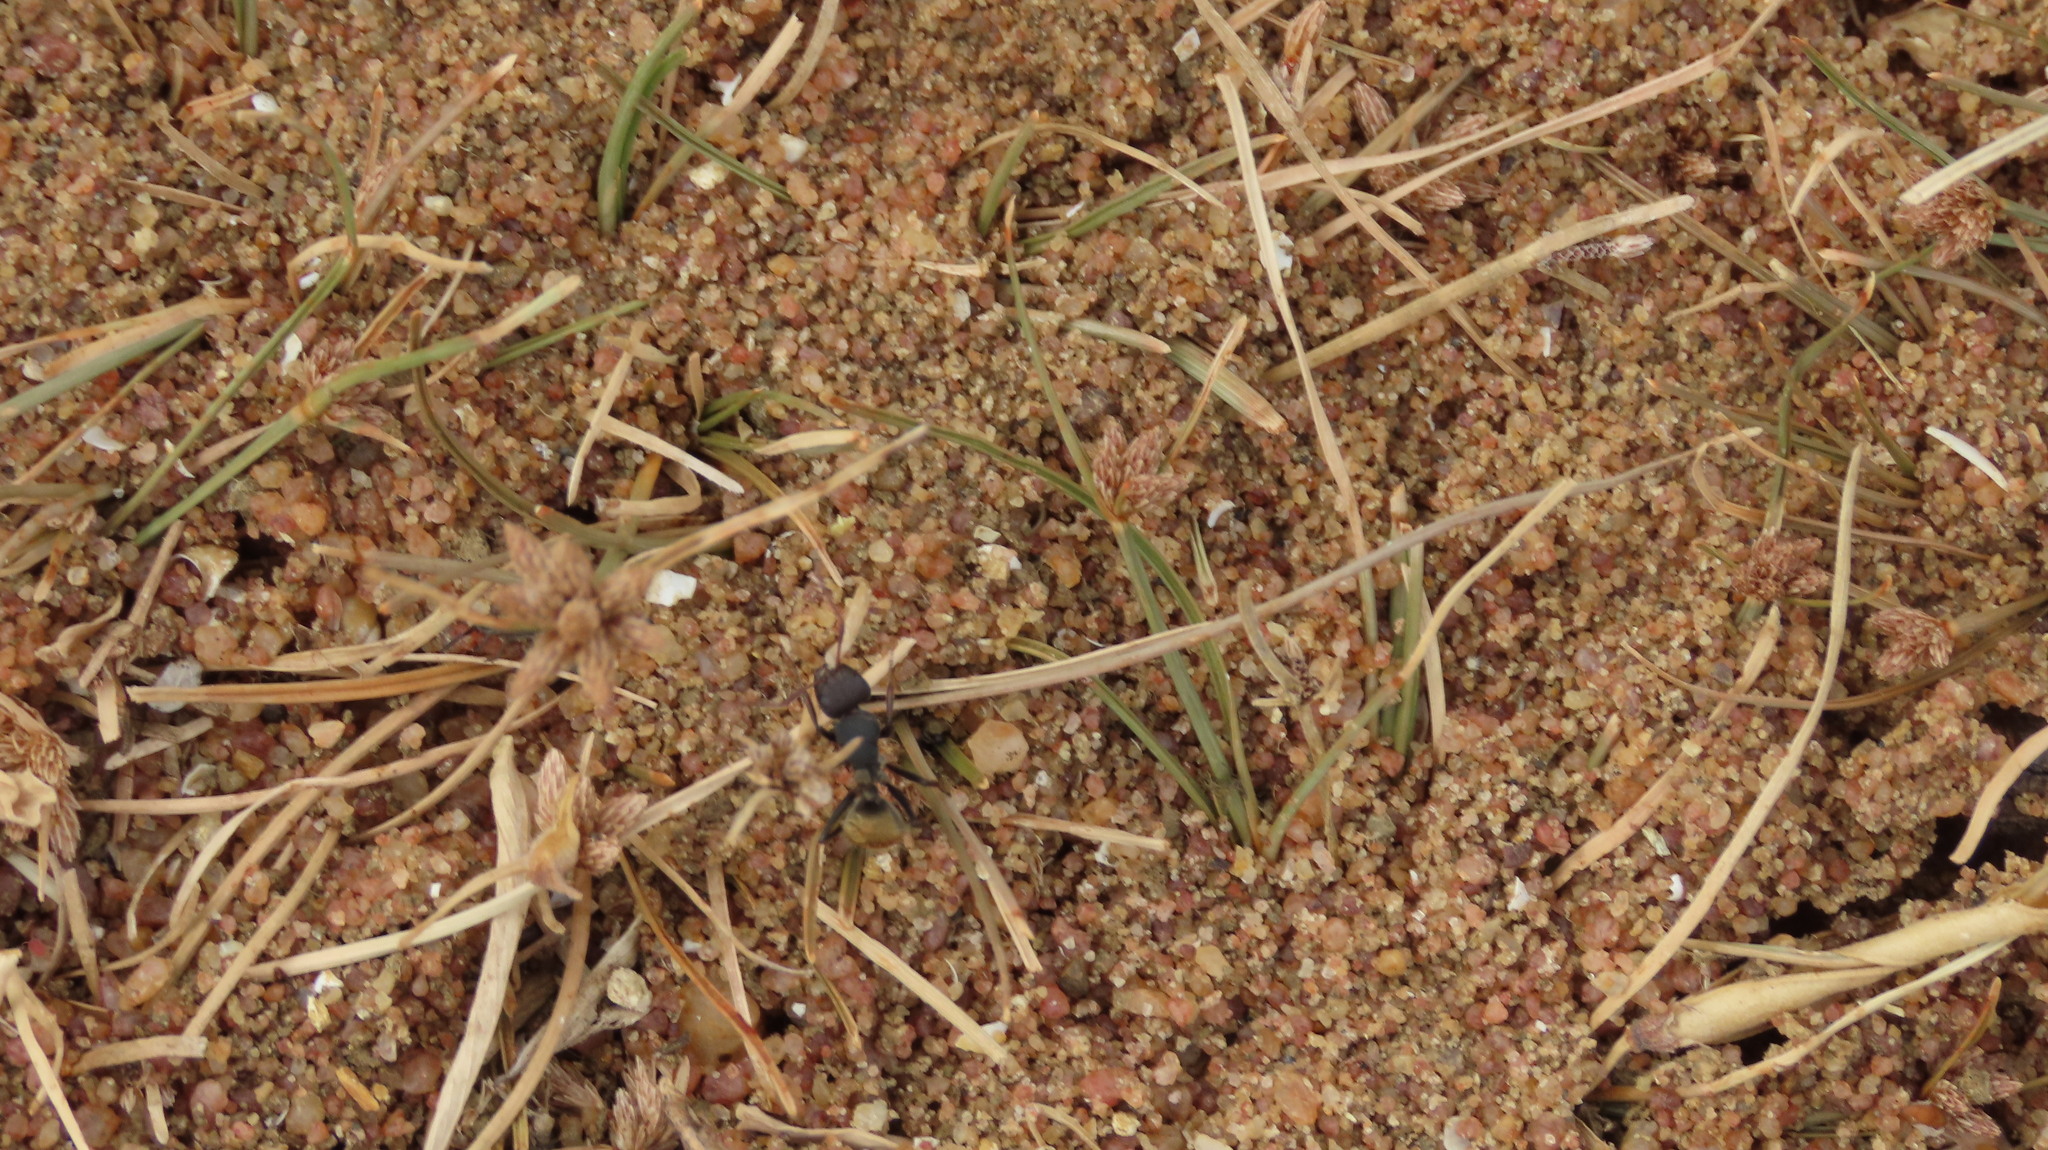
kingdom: Animalia
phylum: Arthropoda
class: Insecta
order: Hymenoptera
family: Formicidae
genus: Camponotus
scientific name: Camponotus sericeus
